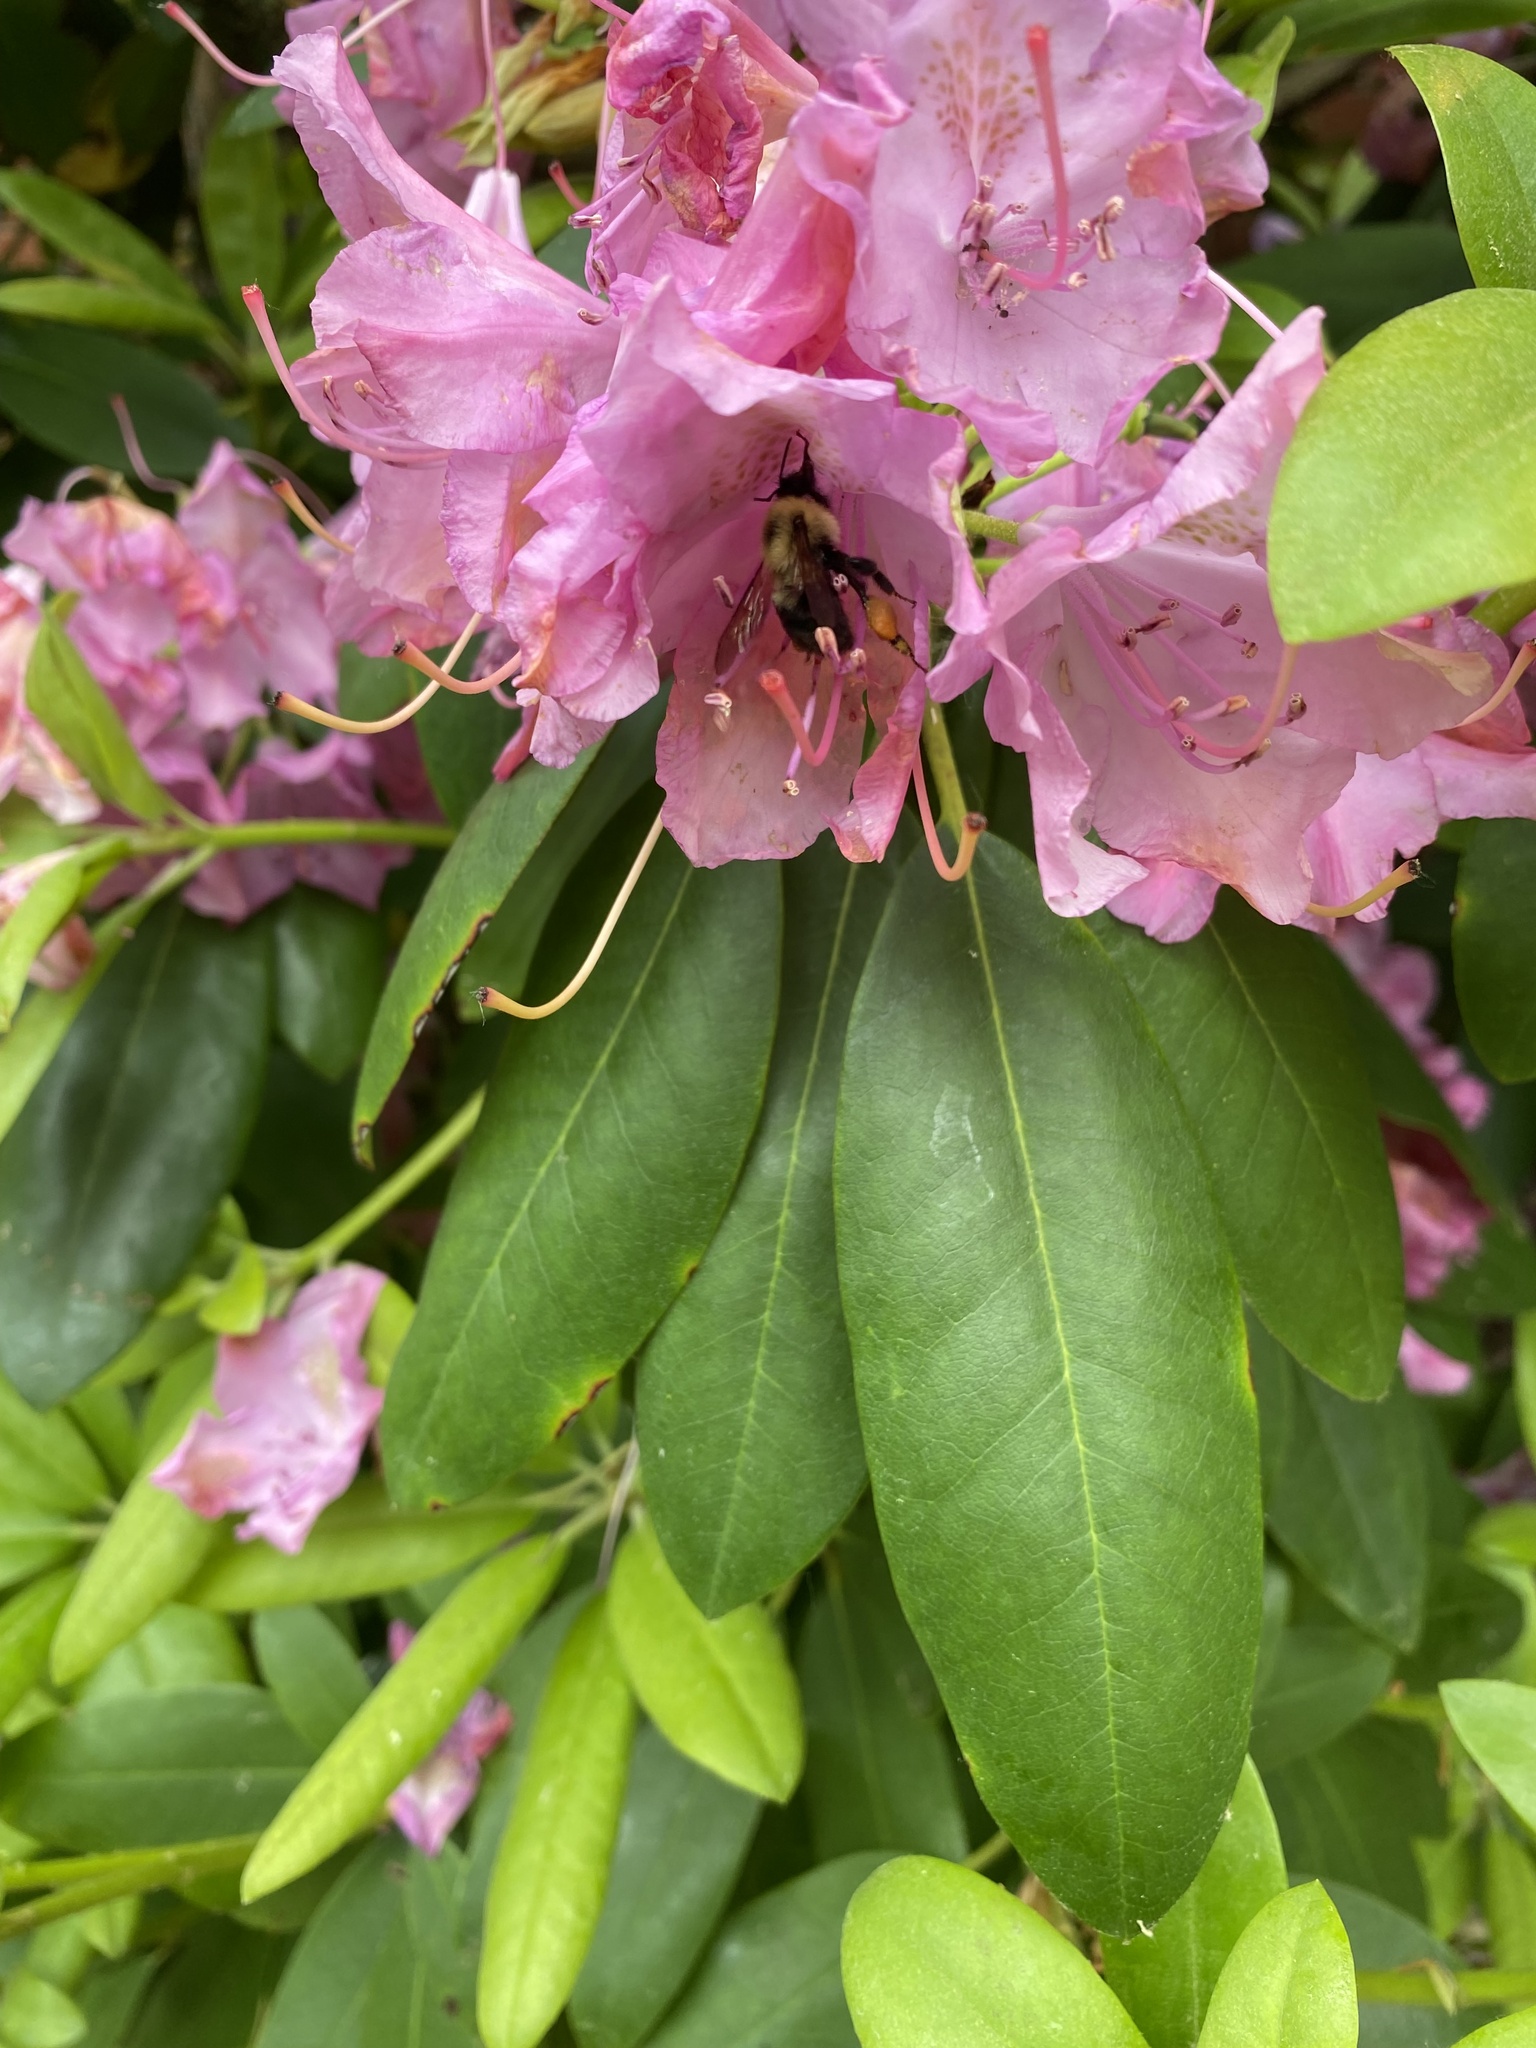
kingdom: Animalia
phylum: Arthropoda
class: Insecta
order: Hymenoptera
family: Apidae
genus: Bombus
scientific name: Bombus bimaculatus
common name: Two-spotted bumble bee
